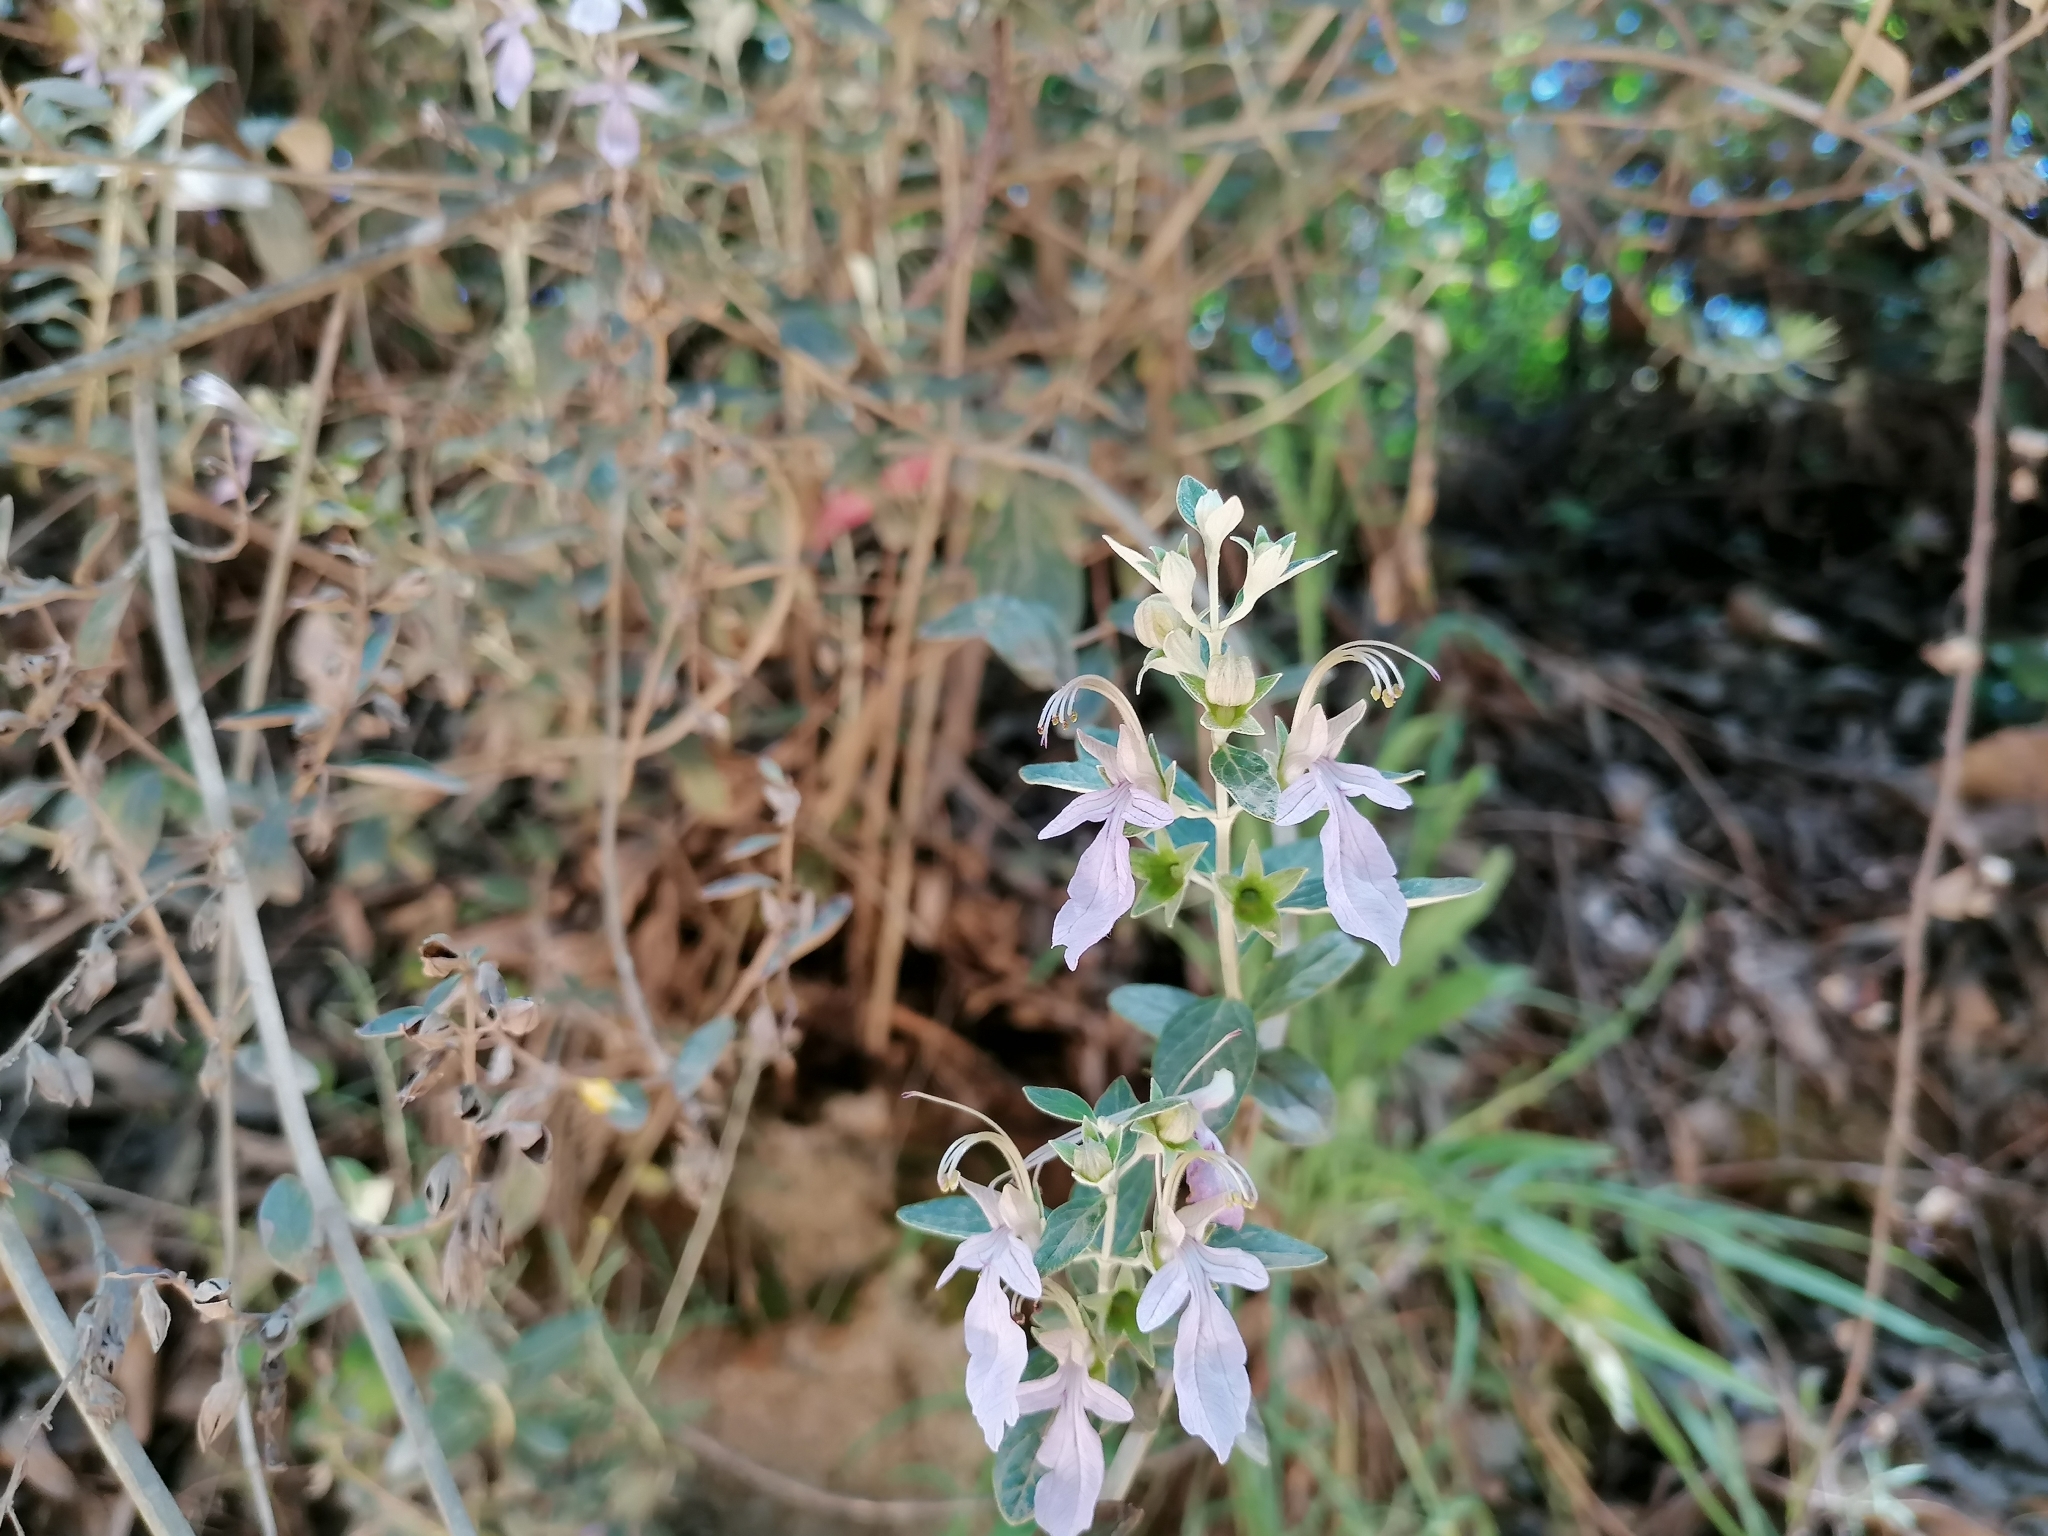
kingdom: Plantae
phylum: Tracheophyta
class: Magnoliopsida
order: Lamiales
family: Lamiaceae
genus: Teucrium
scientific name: Teucrium fruticans
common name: Shrubby germander
